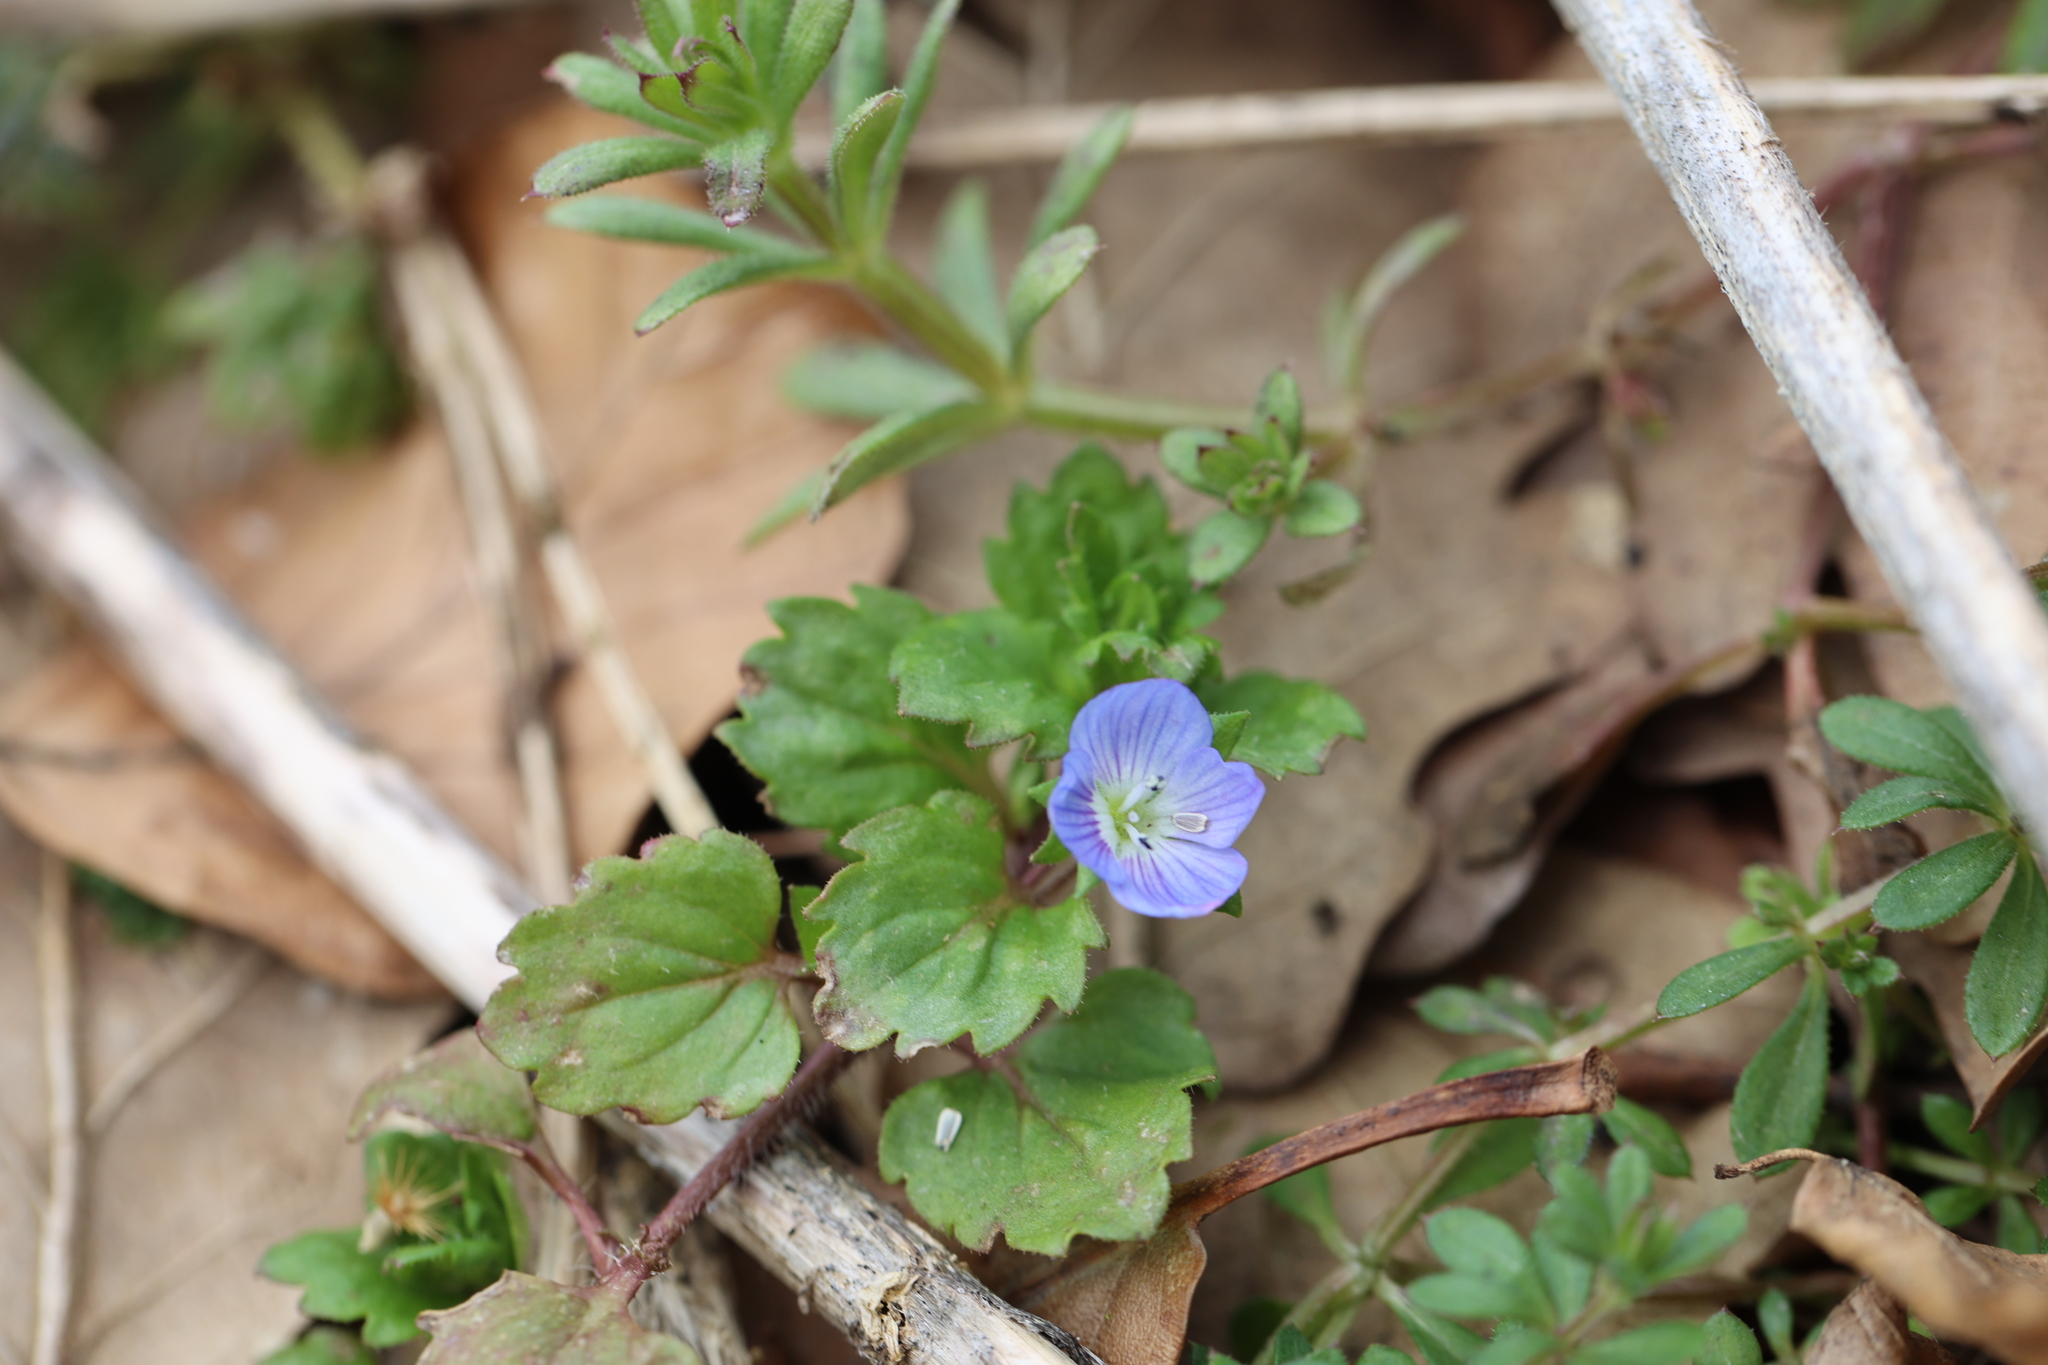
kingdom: Plantae
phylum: Tracheophyta
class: Magnoliopsida
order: Lamiales
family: Plantaginaceae
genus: Veronica
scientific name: Veronica persica
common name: Common field-speedwell
